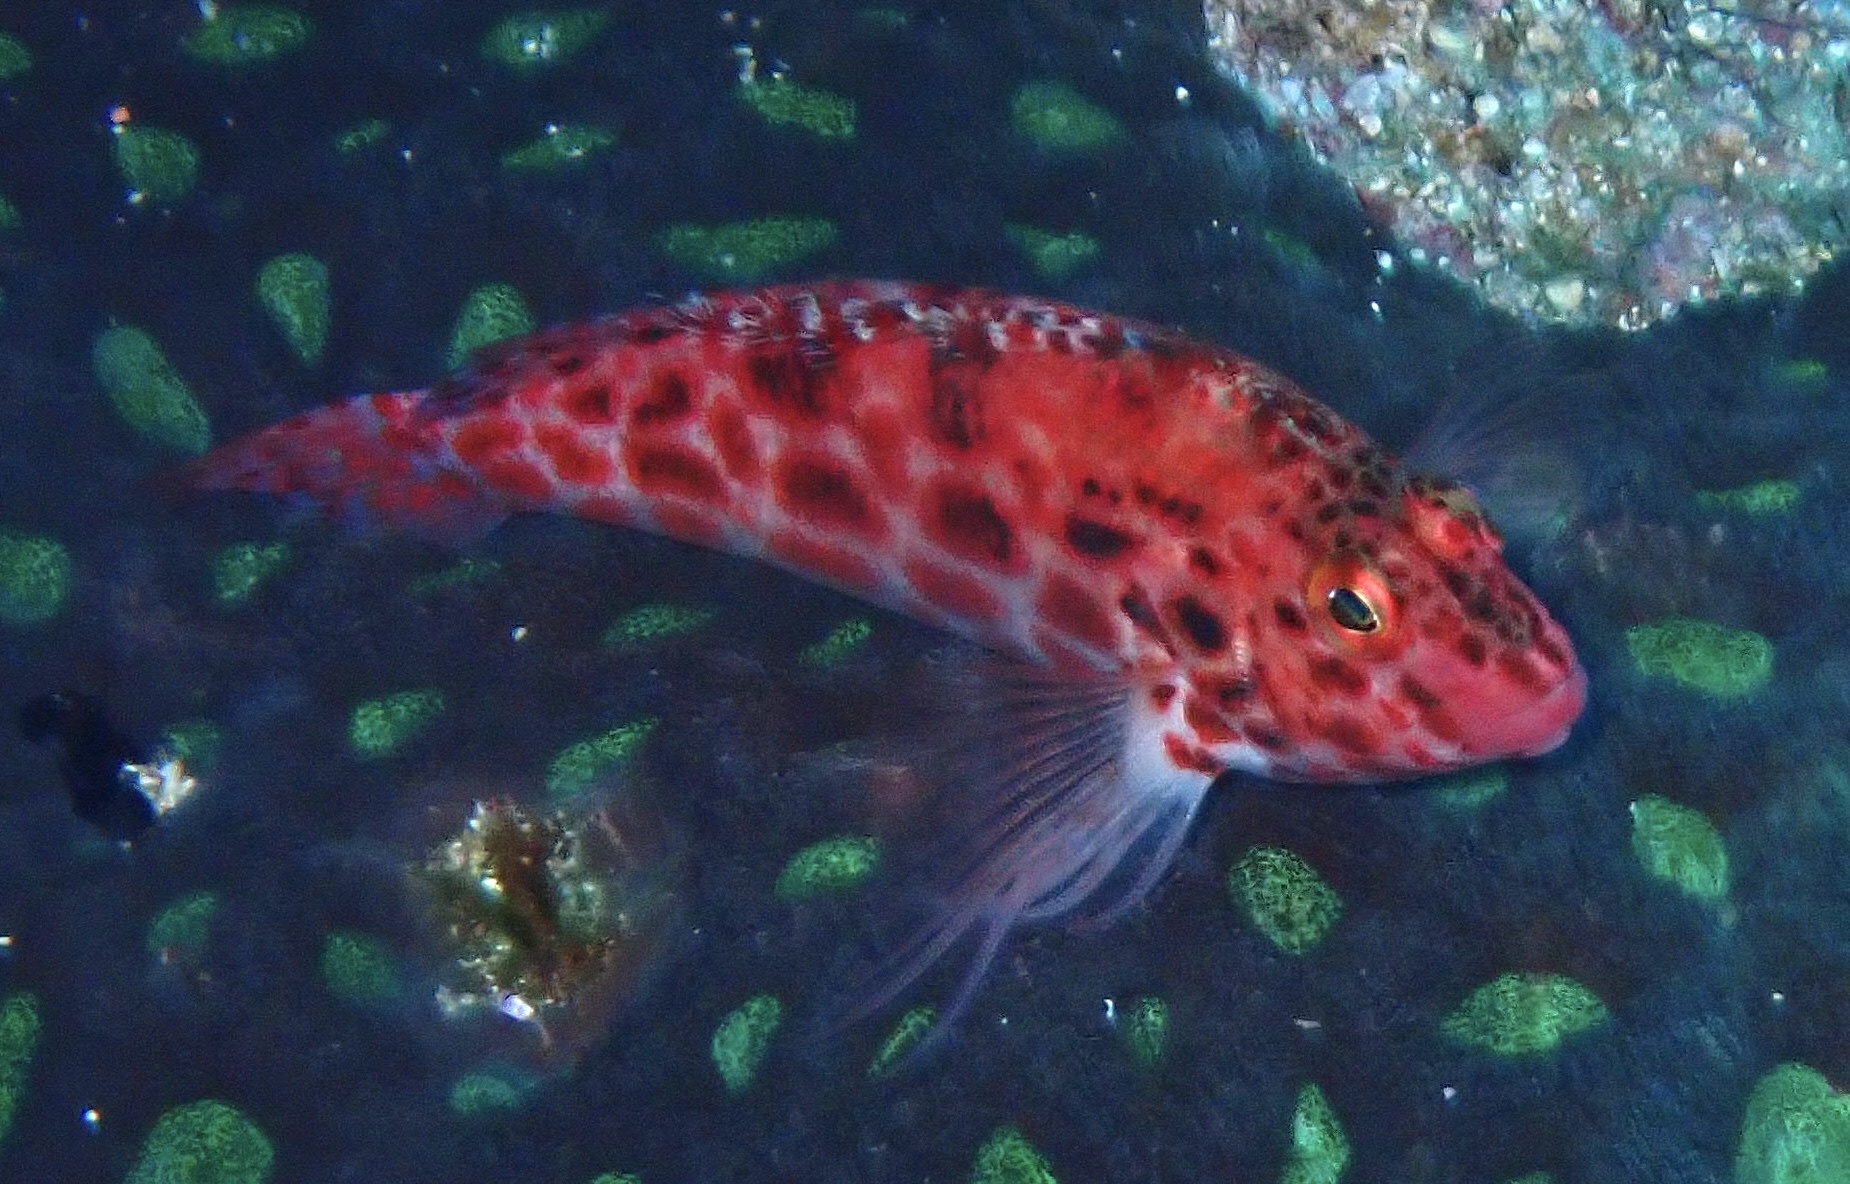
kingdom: Animalia
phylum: Chordata
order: Perciformes
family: Cirrhitidae
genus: Cirrhitichthys
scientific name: Cirrhitichthys oxycephalus
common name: Spotted hawkfish
